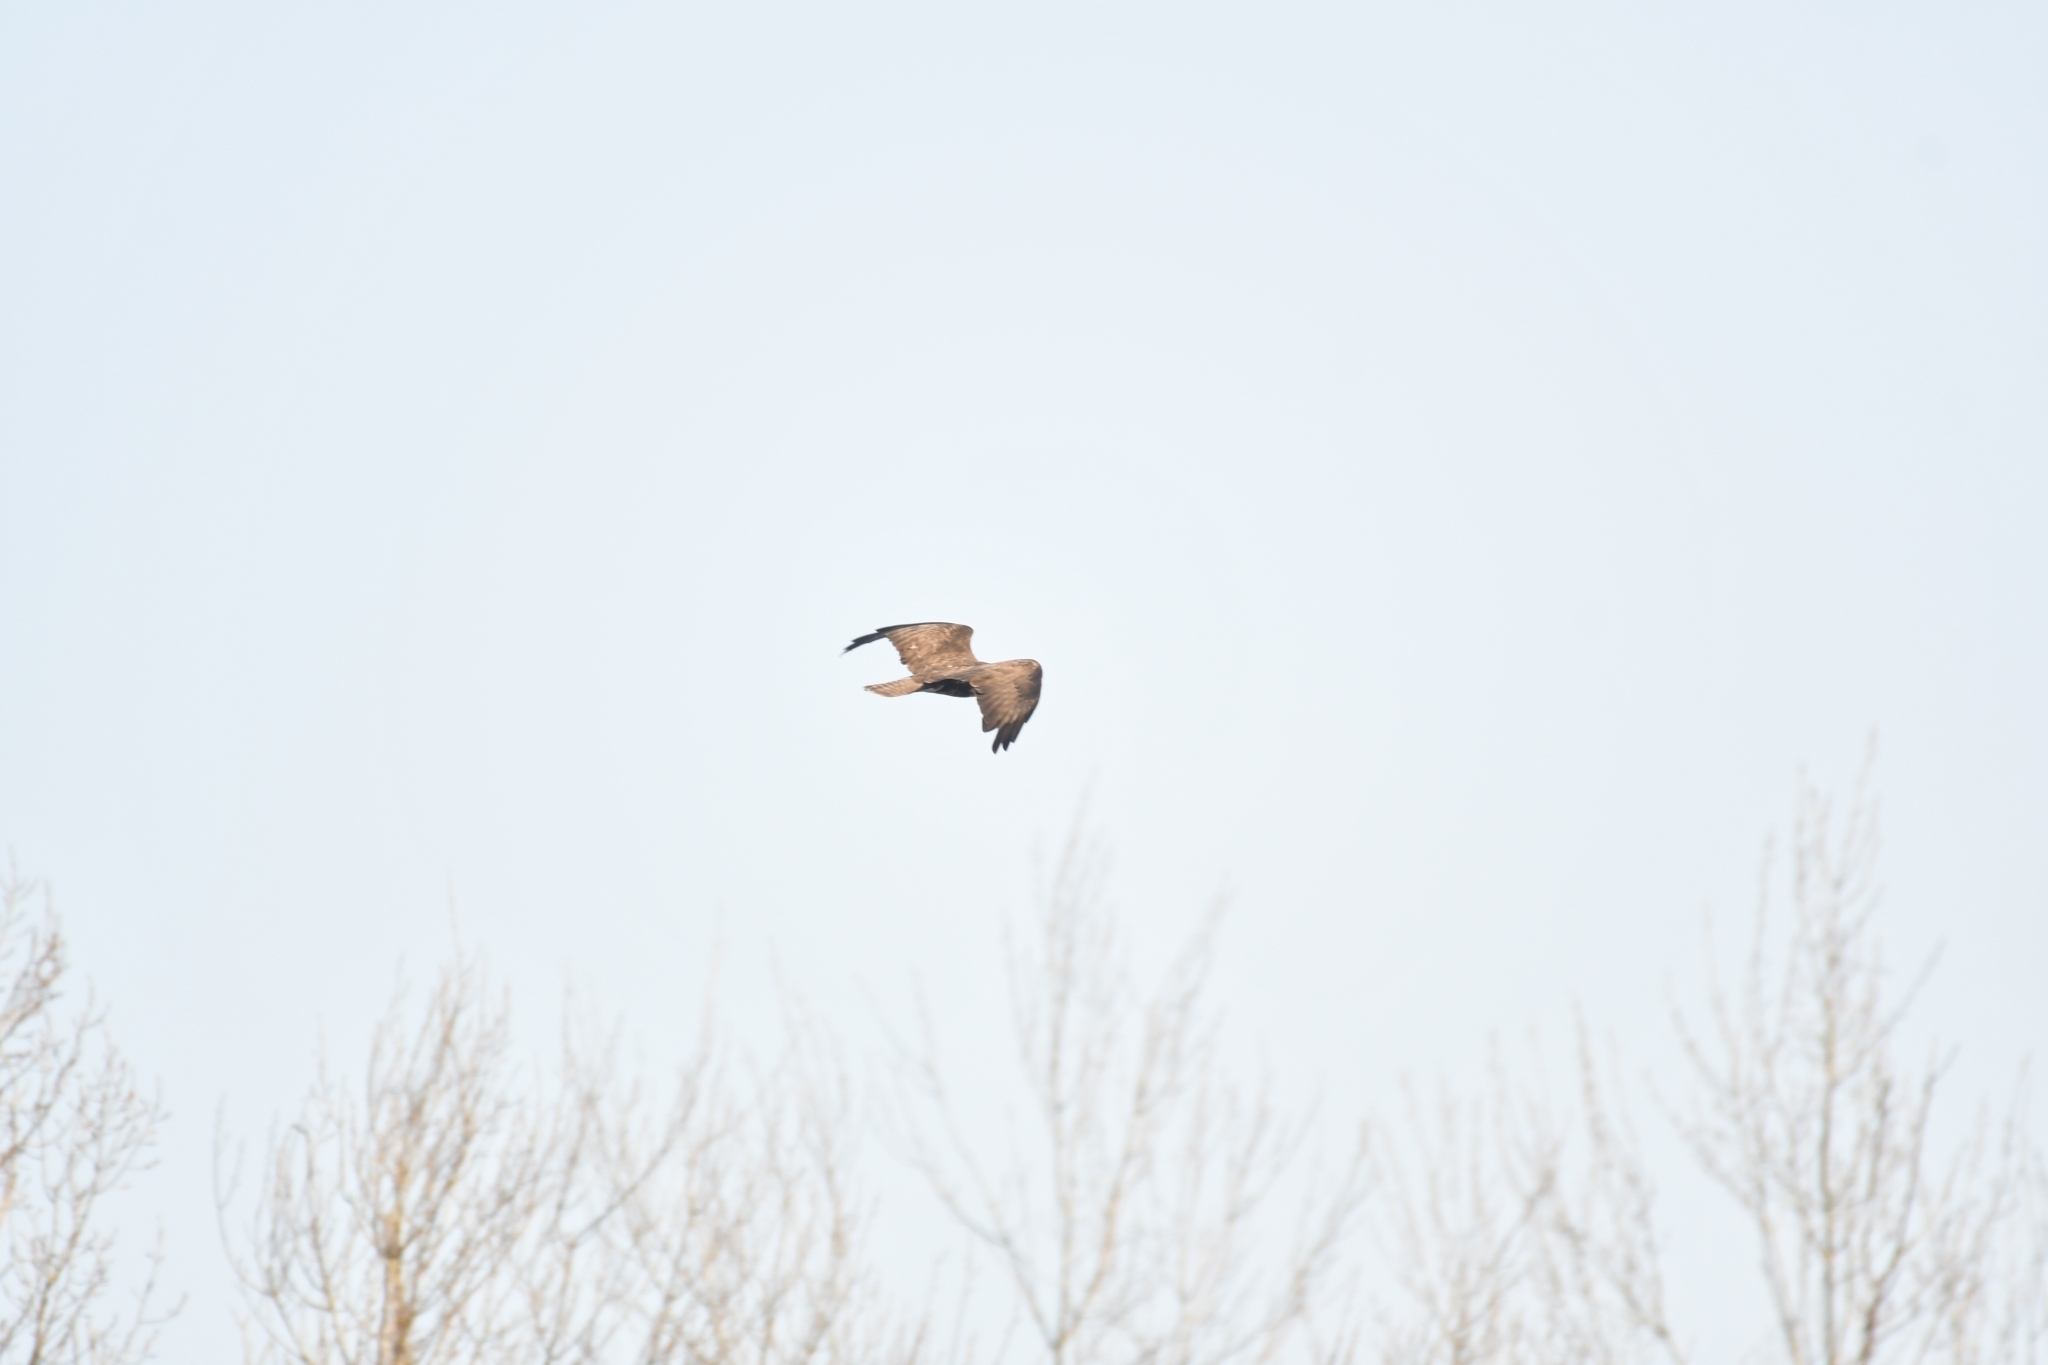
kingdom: Animalia
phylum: Chordata
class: Aves
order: Accipitriformes
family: Accipitridae
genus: Buteo
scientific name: Buteo buteo
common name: Common buzzard
